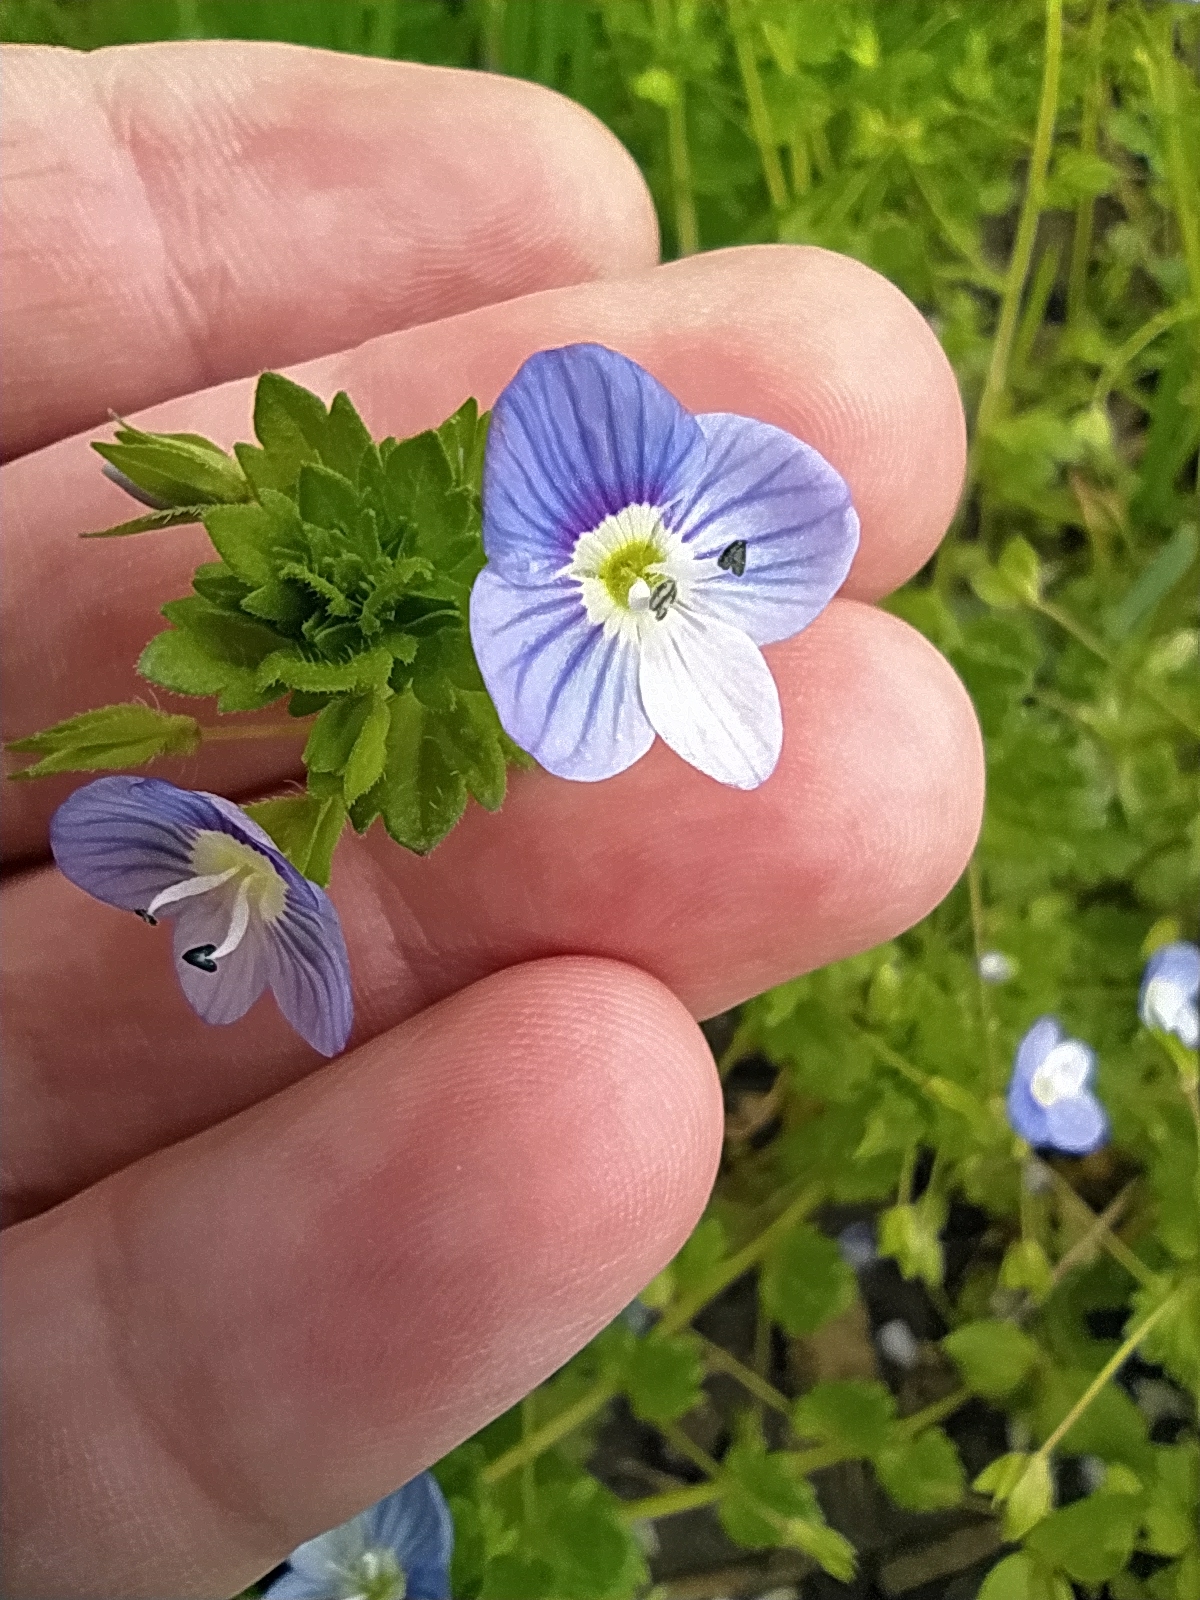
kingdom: Plantae
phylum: Tracheophyta
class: Magnoliopsida
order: Lamiales
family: Plantaginaceae
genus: Veronica
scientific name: Veronica persica
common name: Common field-speedwell
